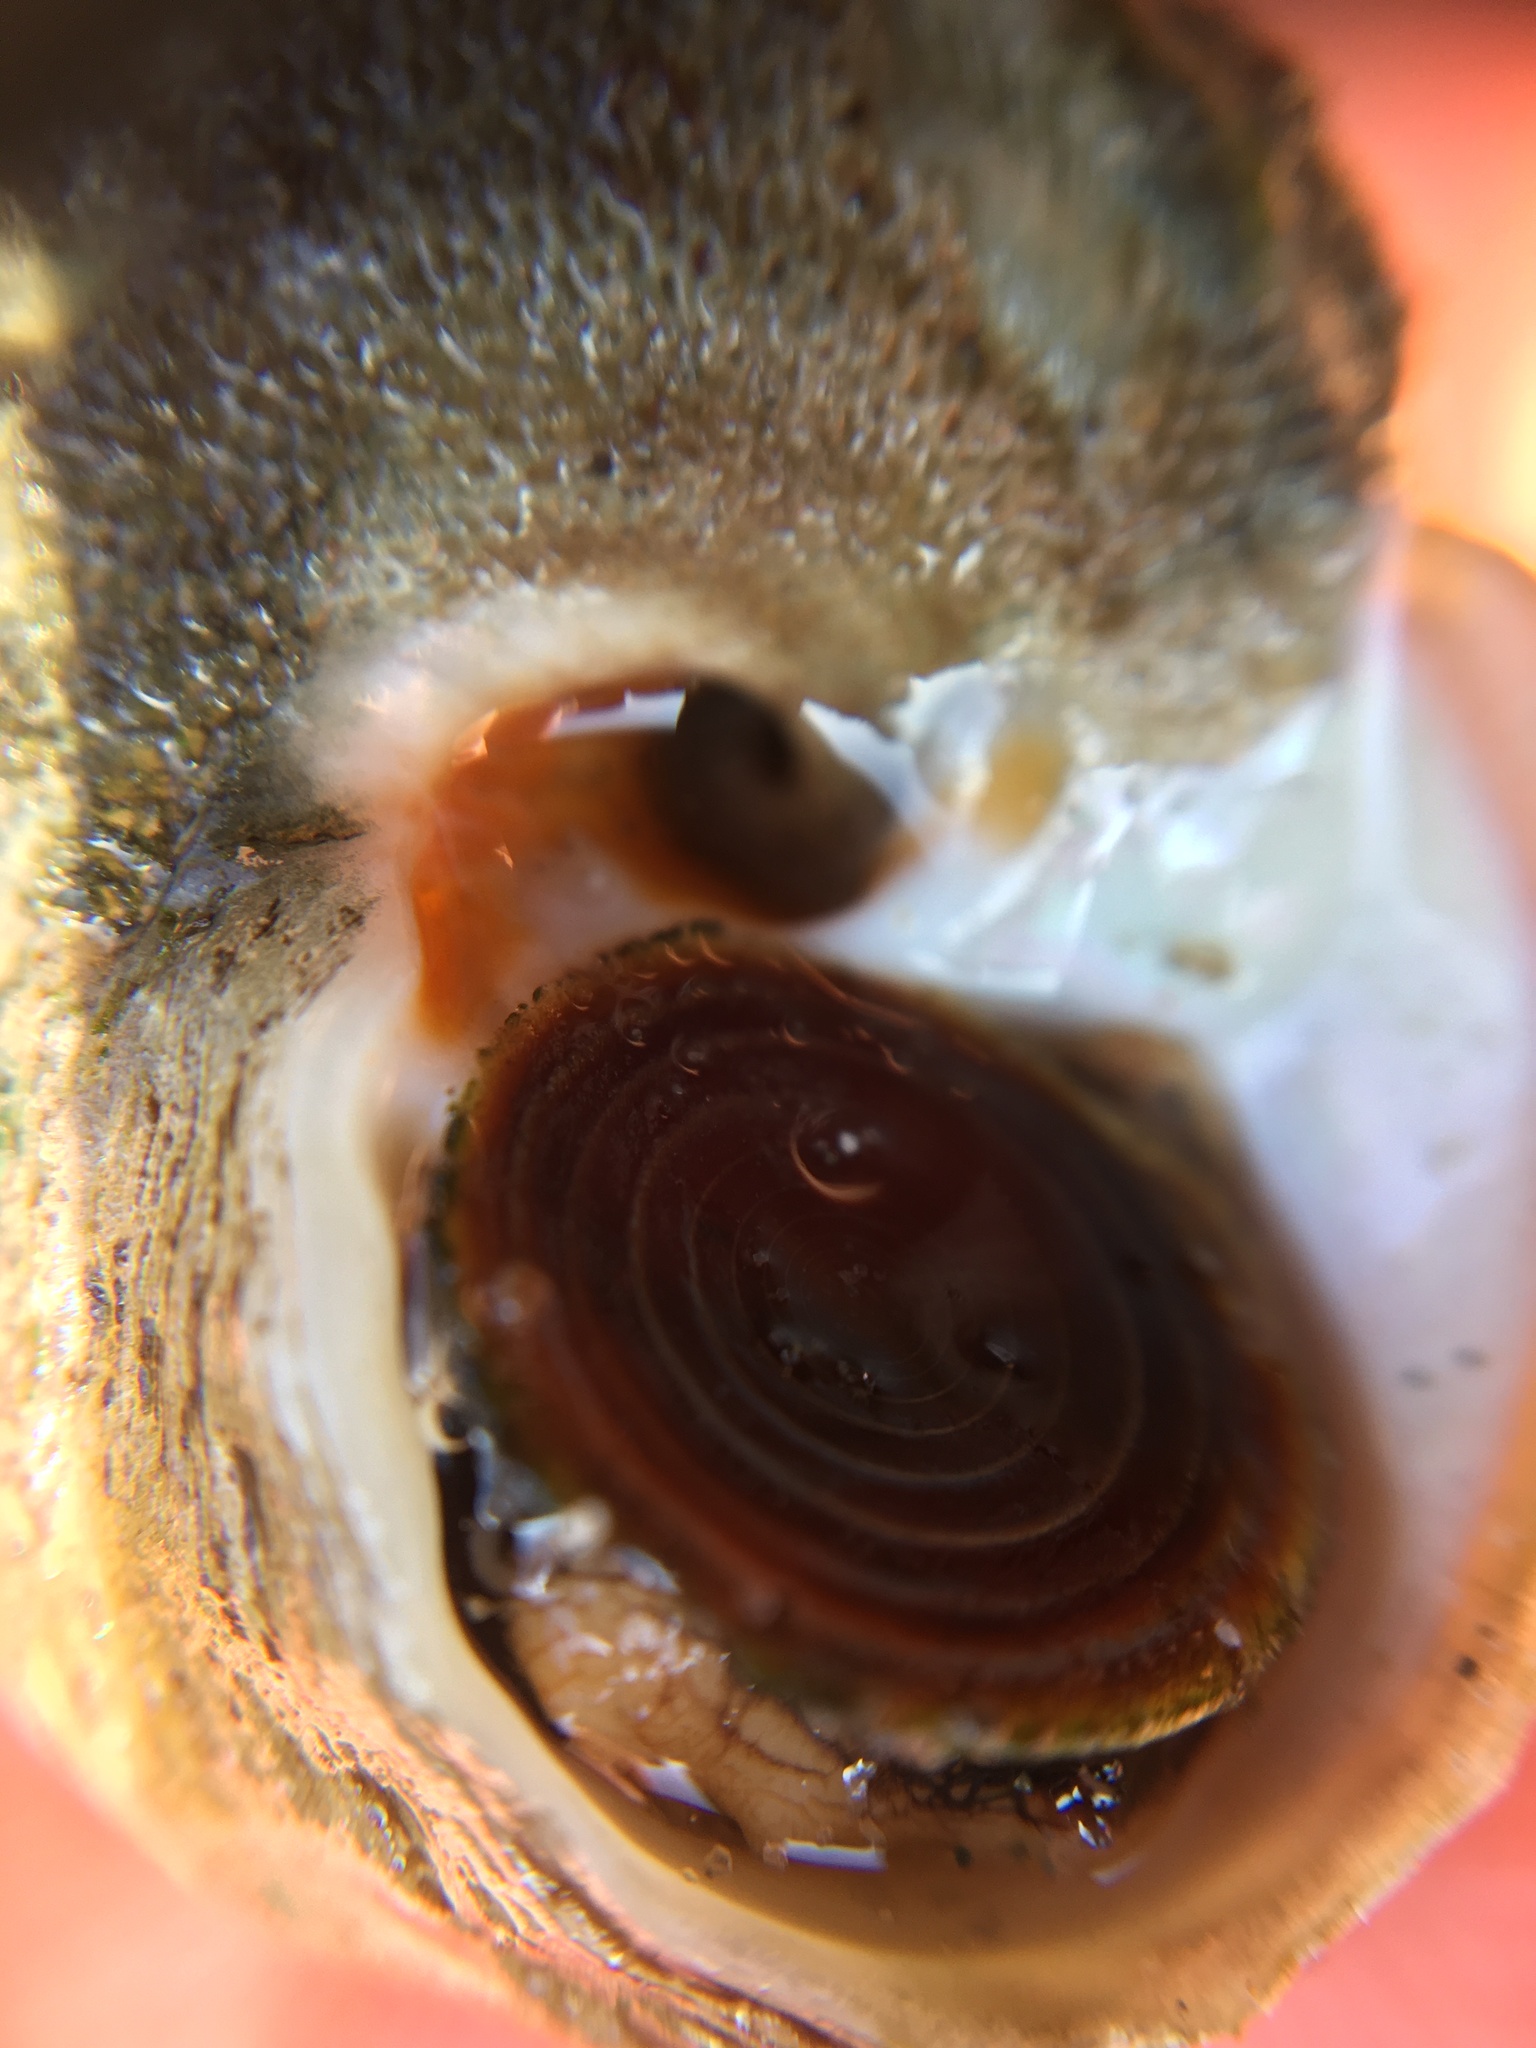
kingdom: Animalia
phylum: Mollusca
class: Gastropoda
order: Trochida
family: Tegulidae
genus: Tegula
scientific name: Tegula aureotincta
